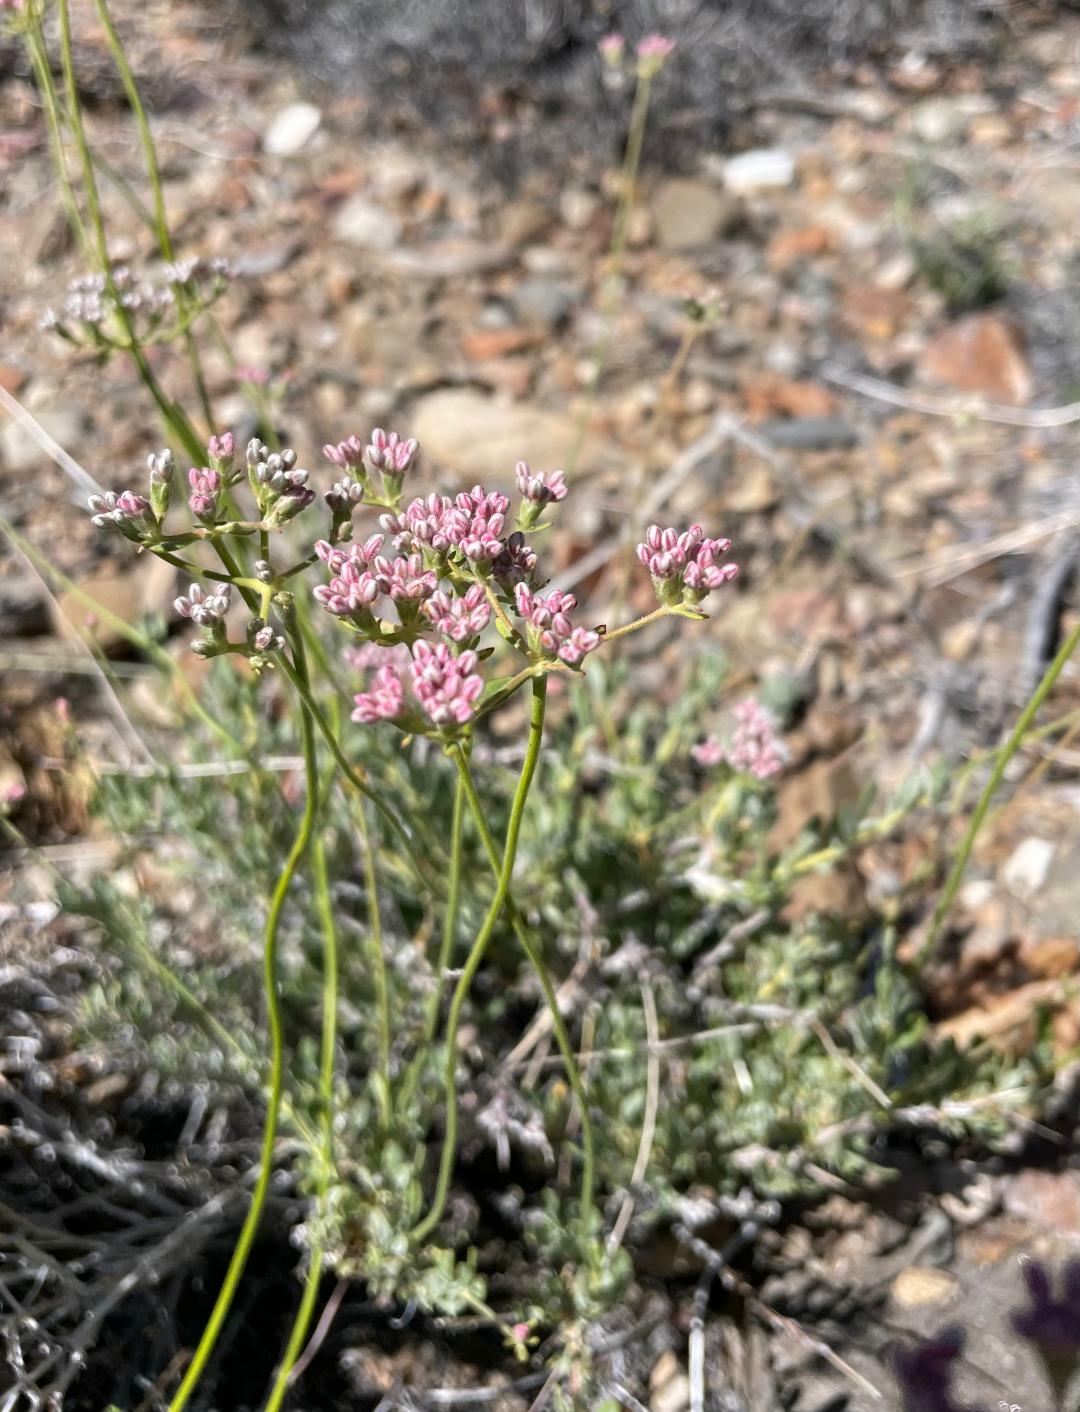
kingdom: Plantae
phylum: Tracheophyta
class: Magnoliopsida
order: Caryophyllales
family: Polygonaceae
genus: Eriogonum
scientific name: Eriogonum fasciculatum
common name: California wild buckwheat
